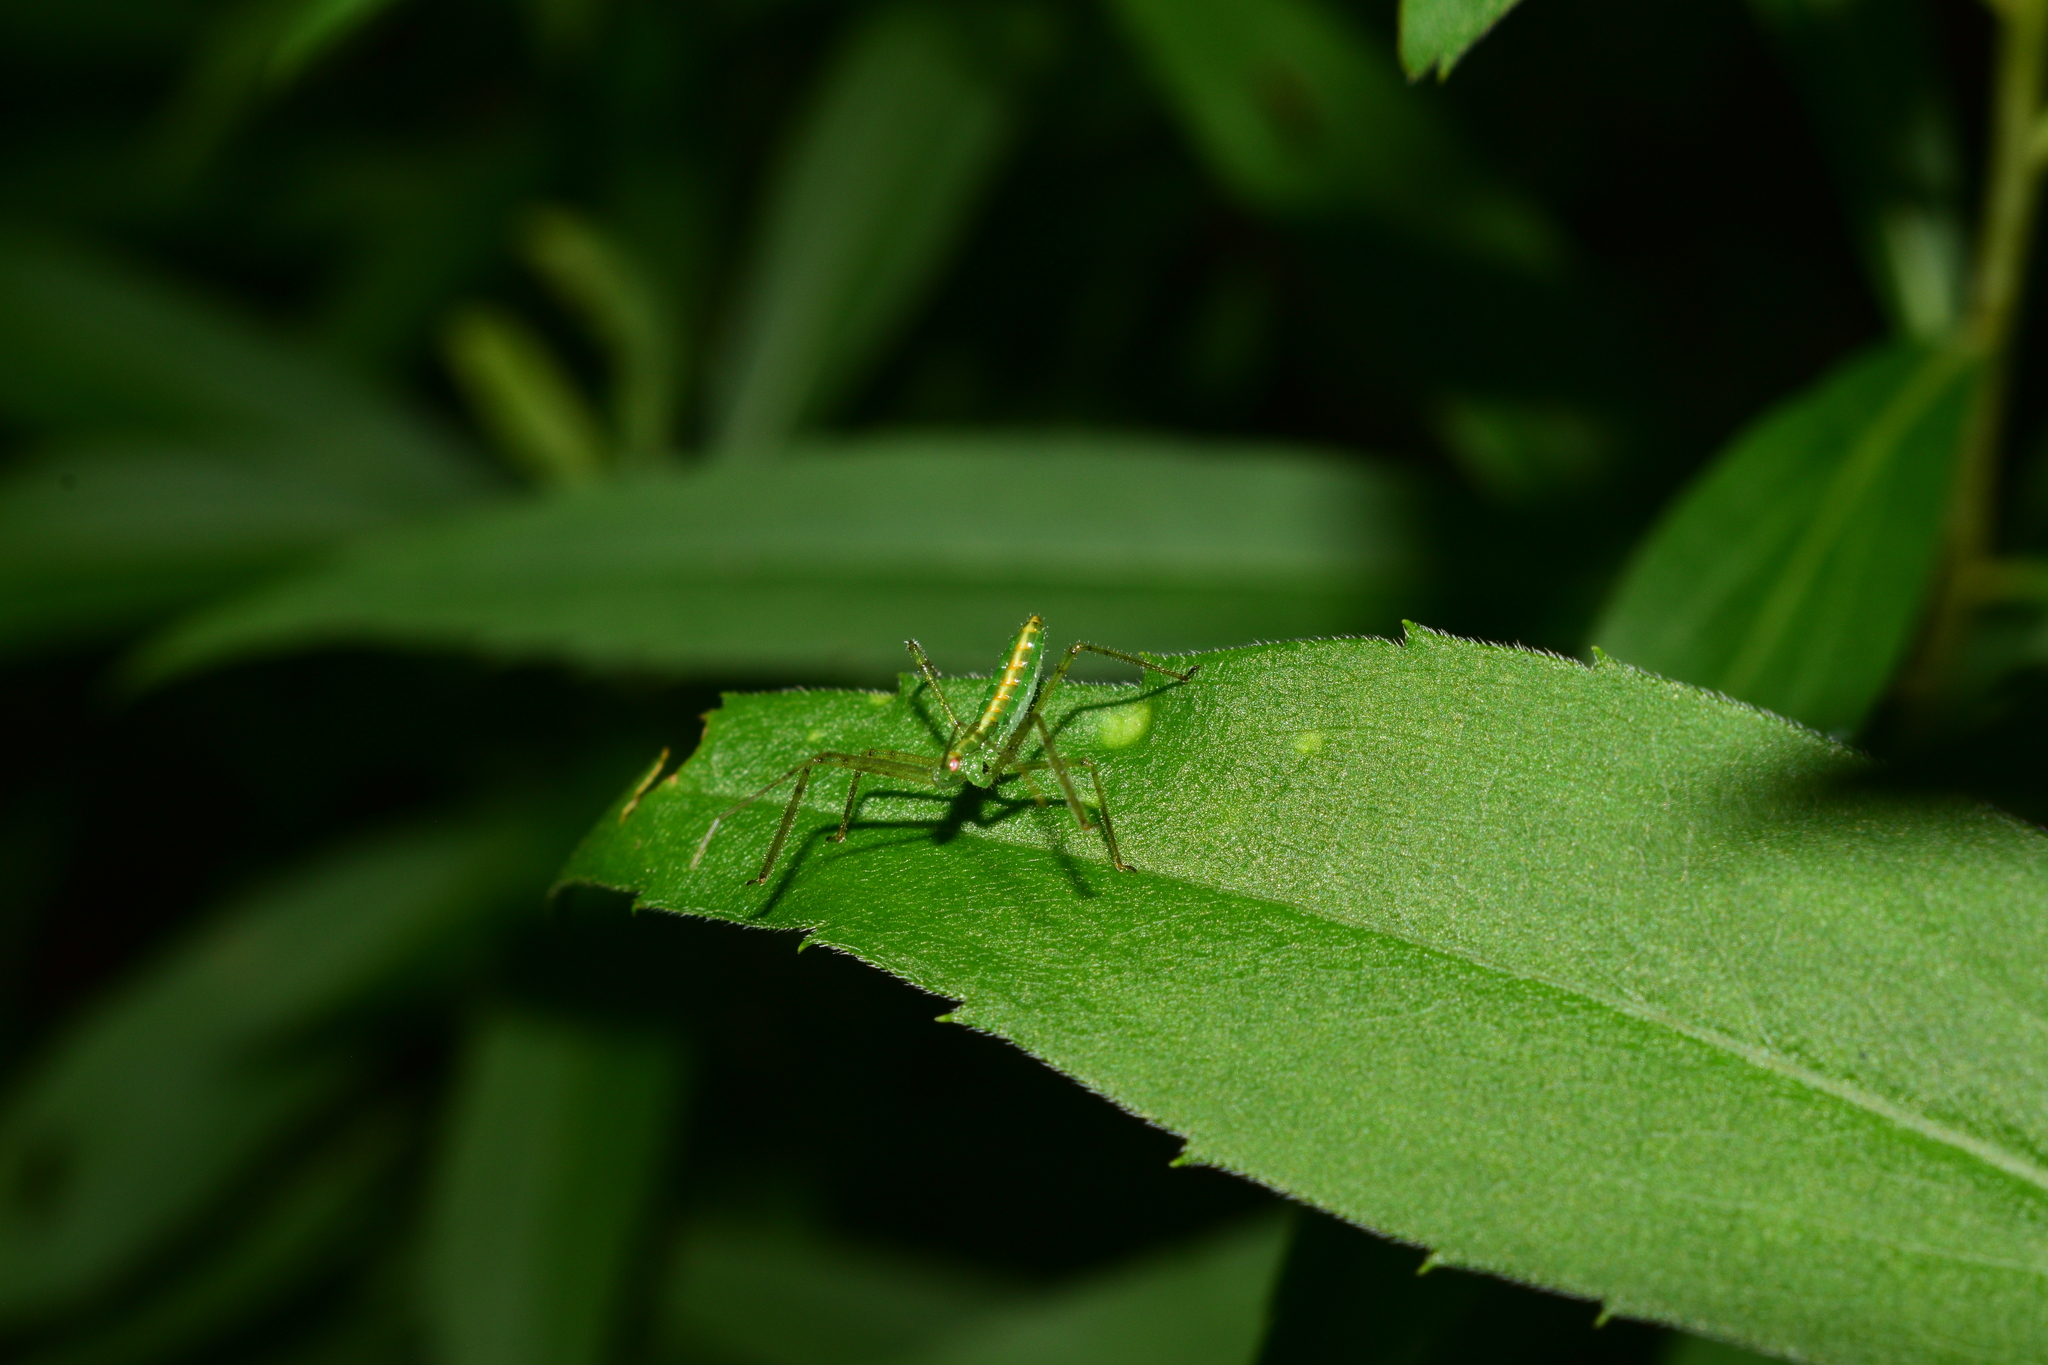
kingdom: Animalia
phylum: Arthropoda
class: Insecta
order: Hemiptera
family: Reduviidae
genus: Zelus
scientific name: Zelus luridus
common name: Pale green assassin bug
